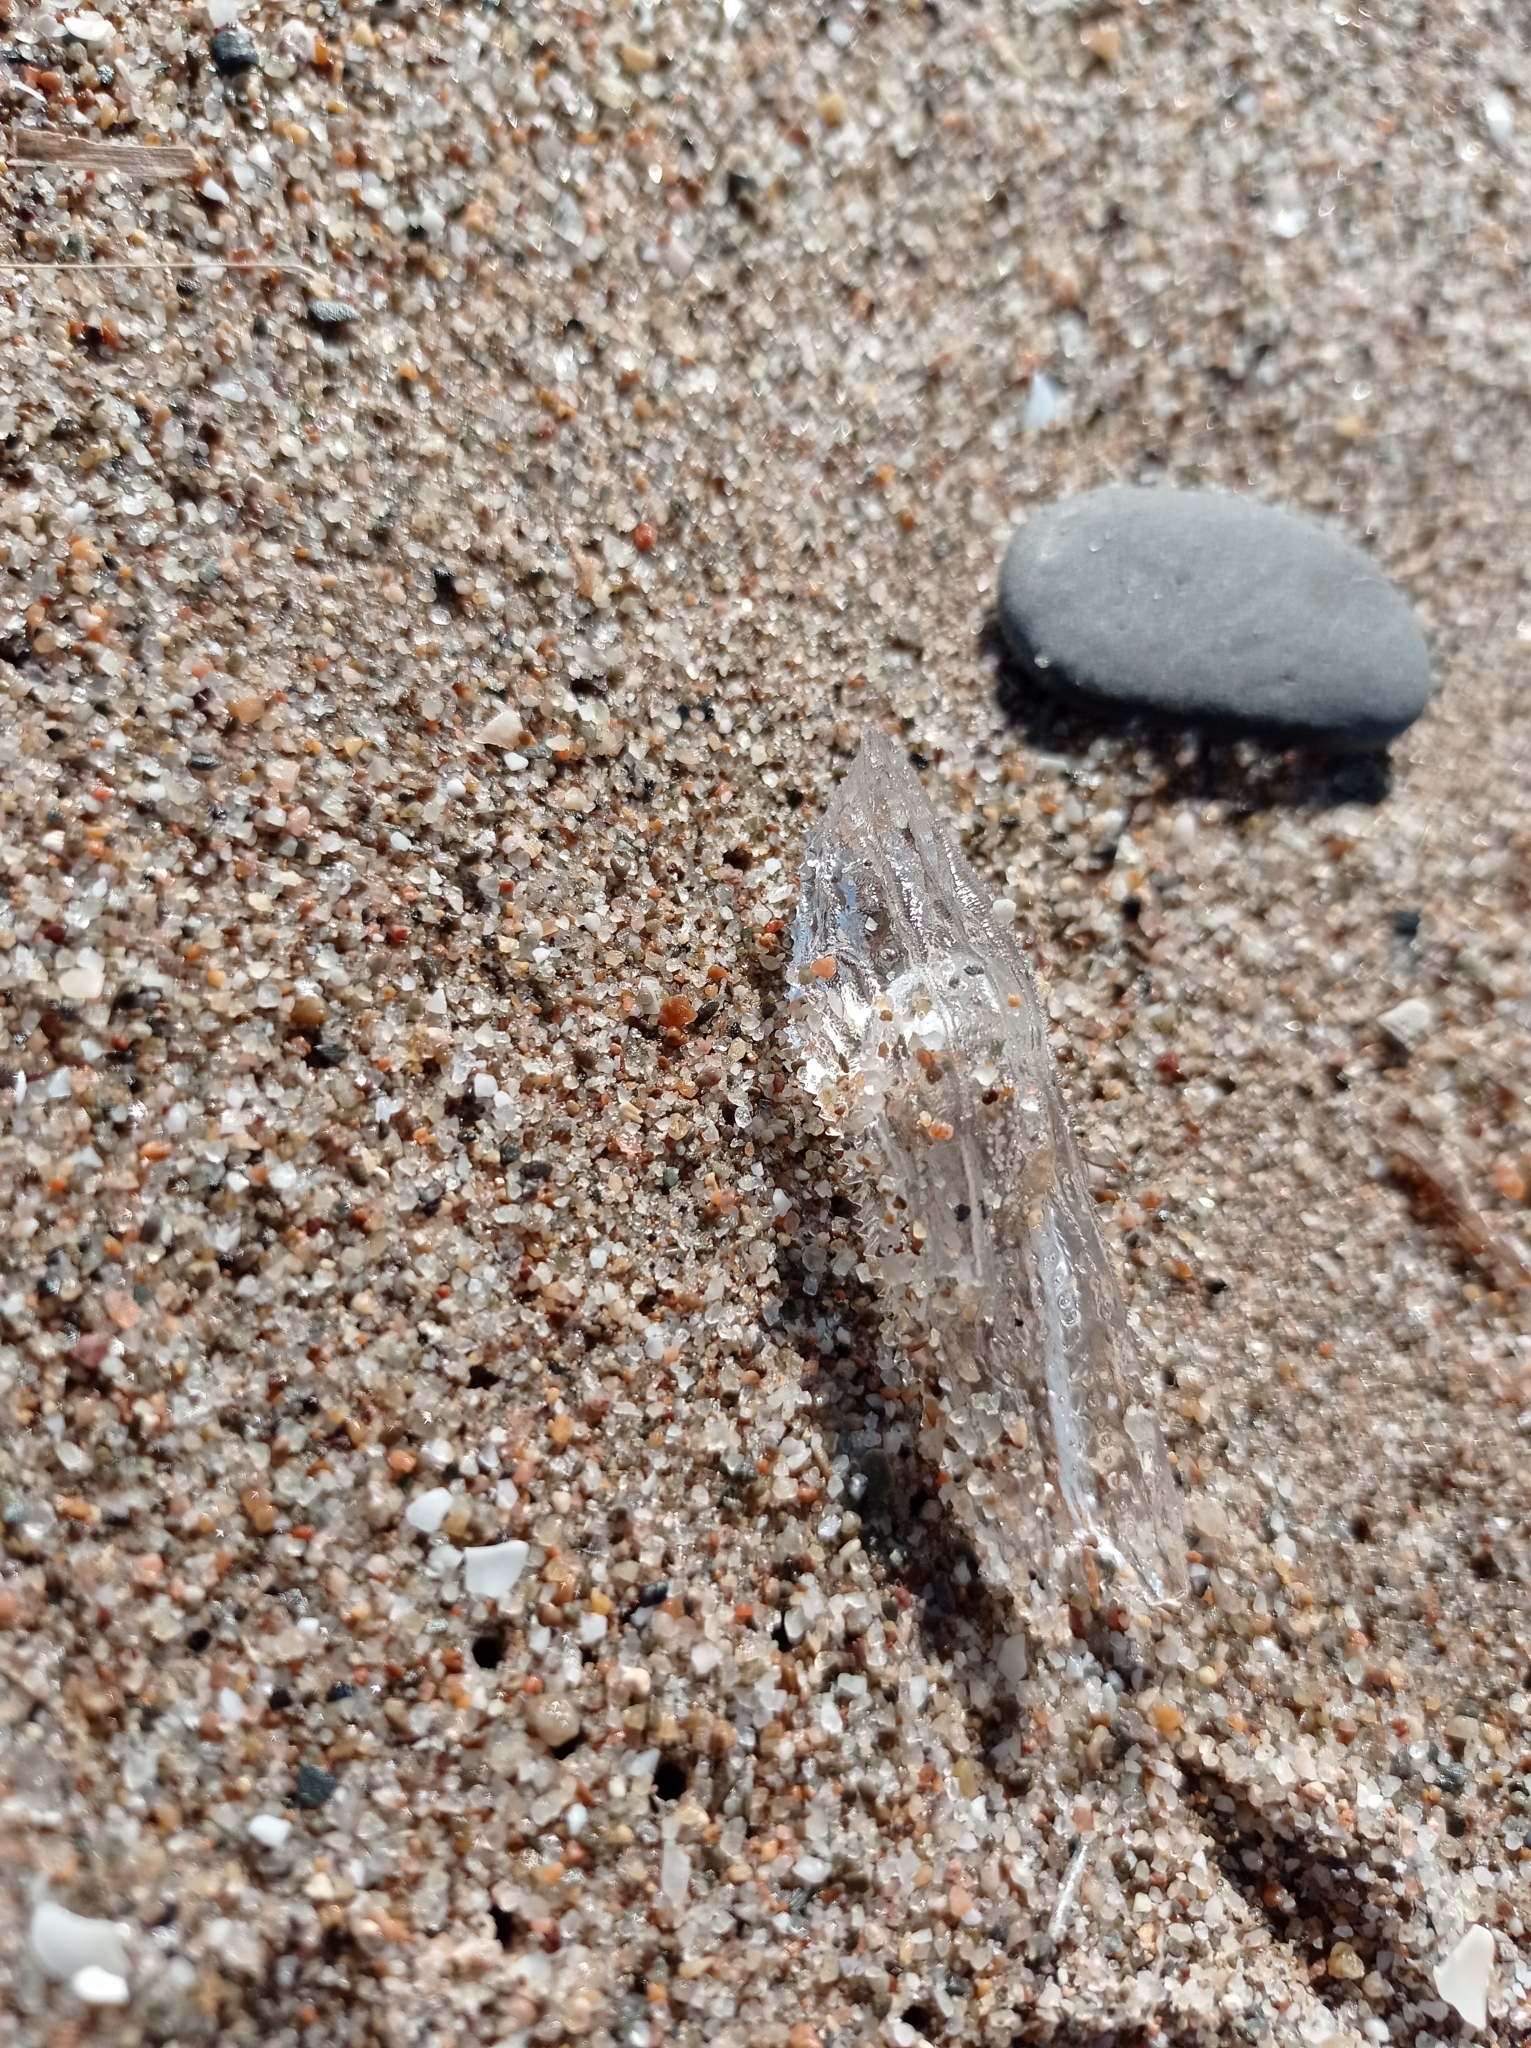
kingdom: Animalia
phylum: Mollusca
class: Gastropoda
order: Pteropoda
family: Cymbuliidae
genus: Cymbulia
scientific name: Cymbulia peronii
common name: Sword of venus
